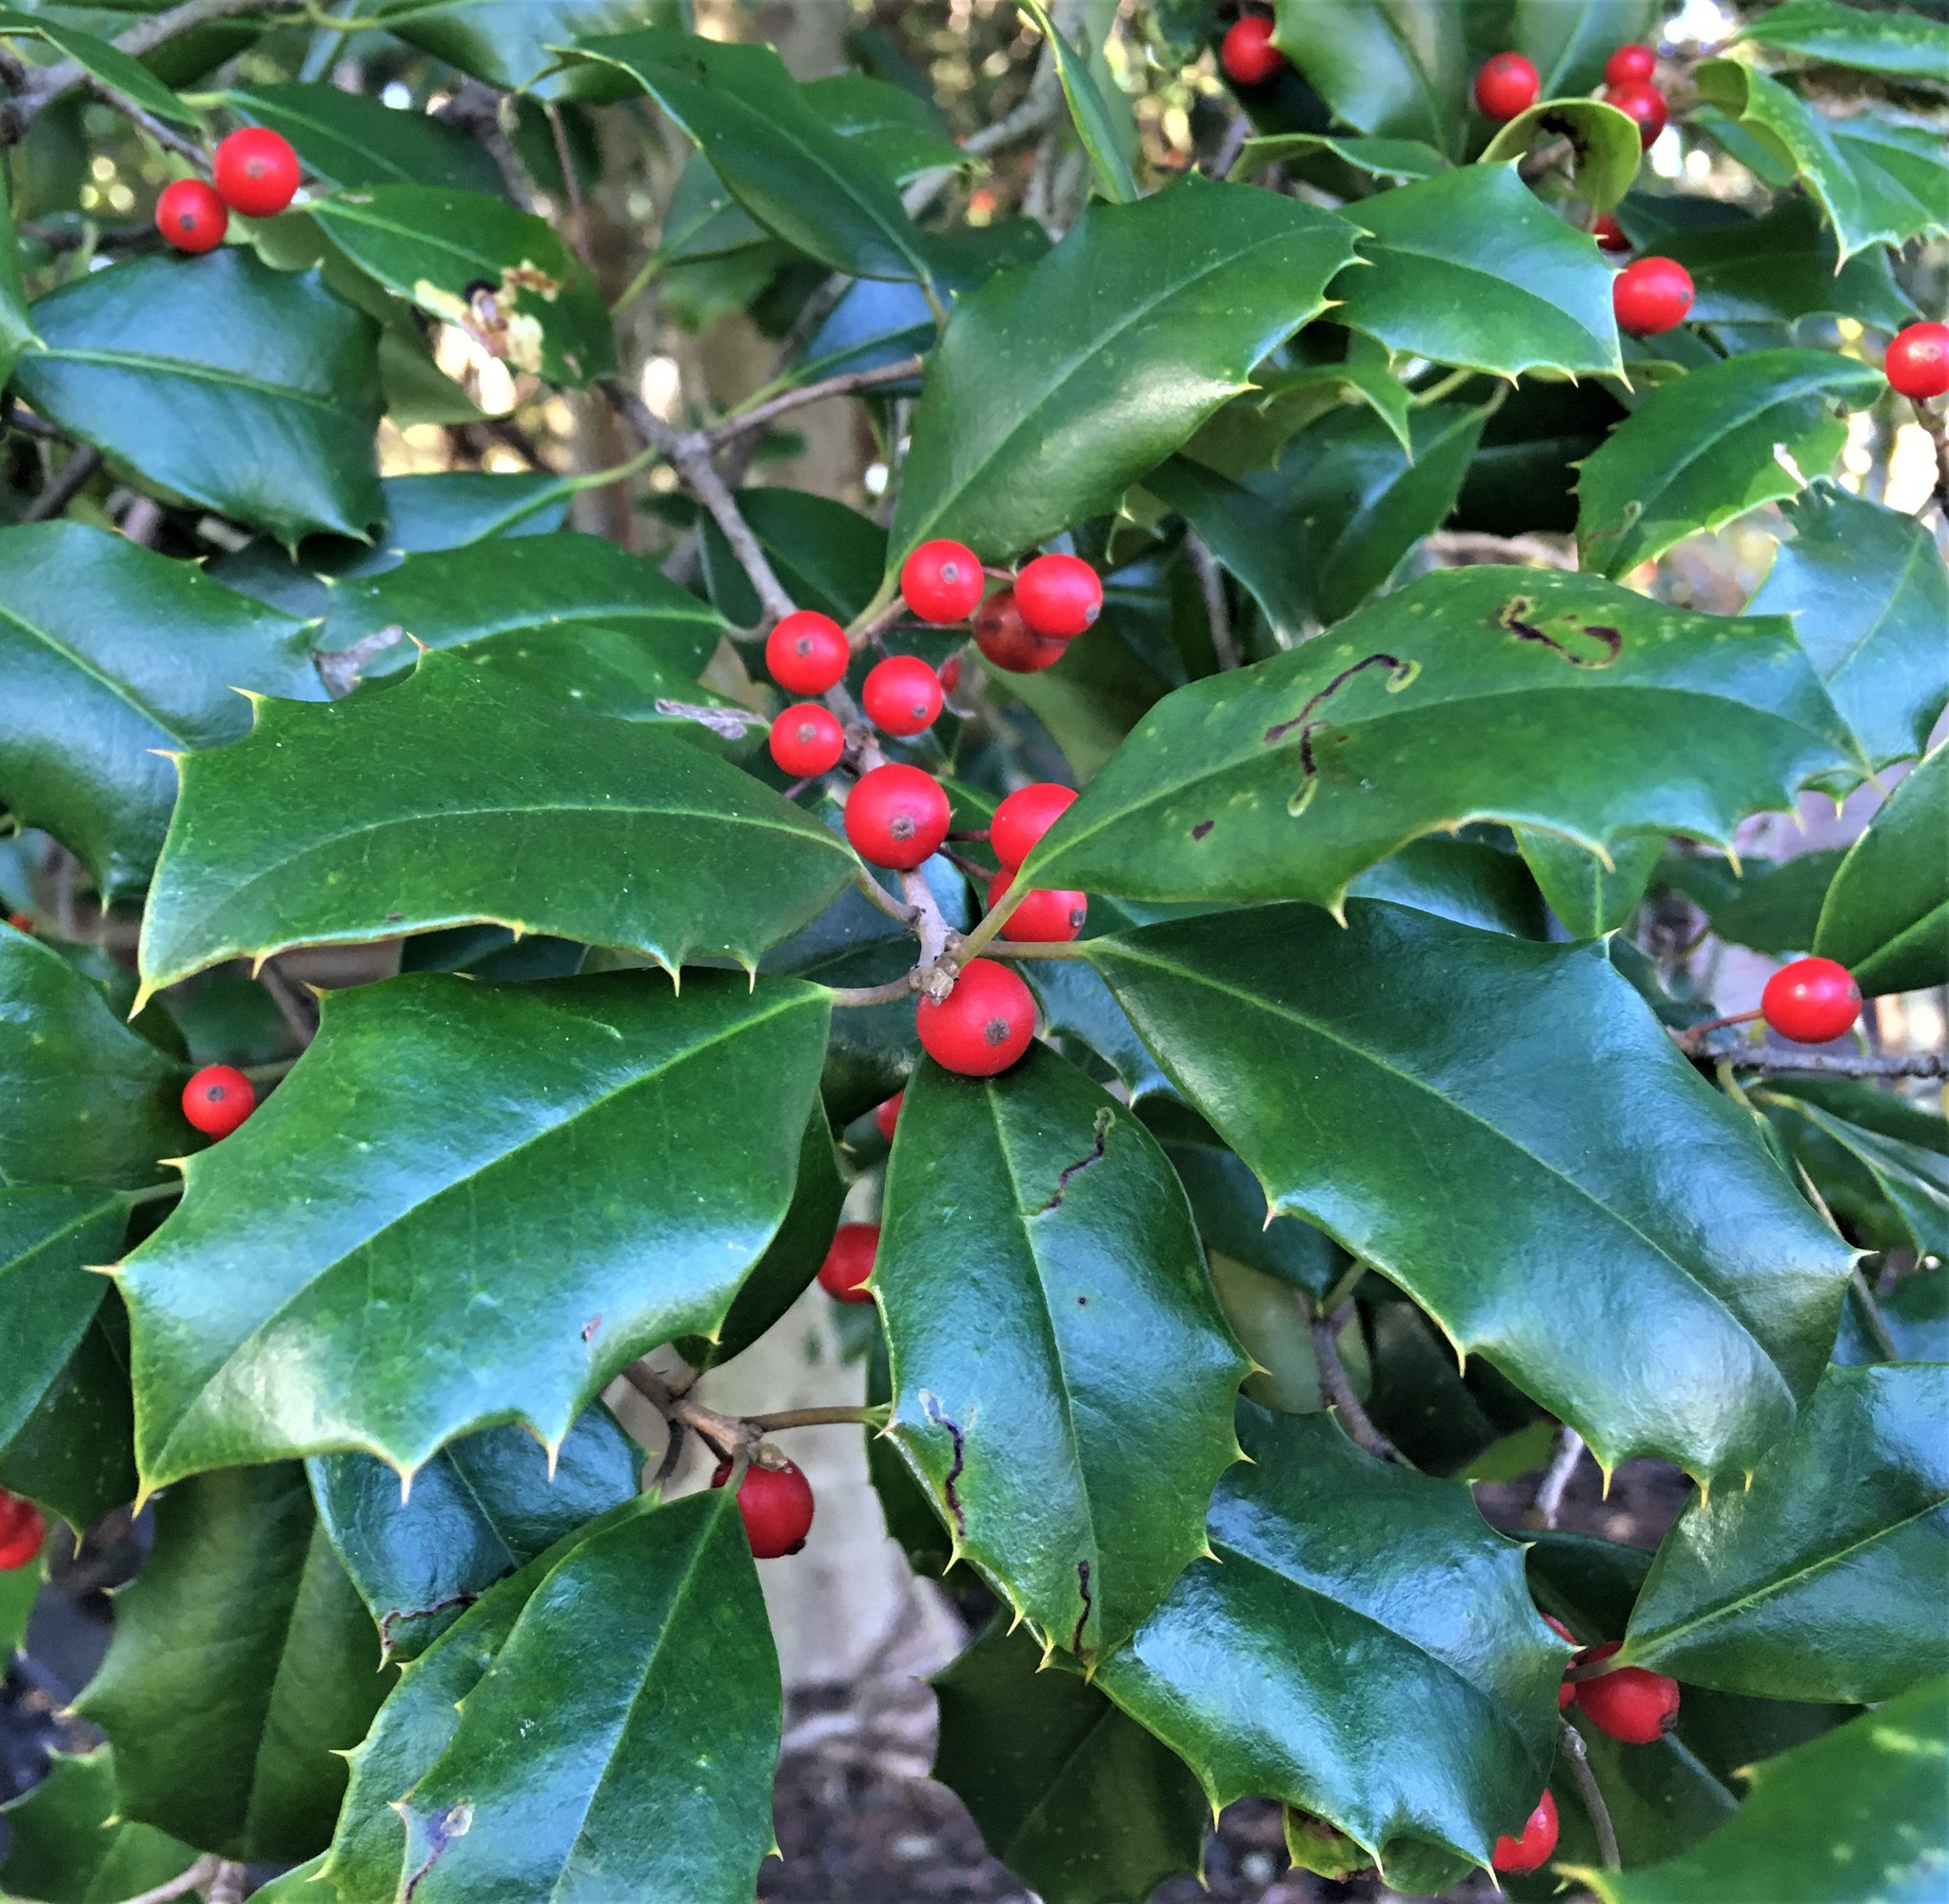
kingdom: Animalia
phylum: Arthropoda
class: Insecta
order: Diptera
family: Agromyzidae
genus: Phytomyza
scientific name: Phytomyza ilicicola
